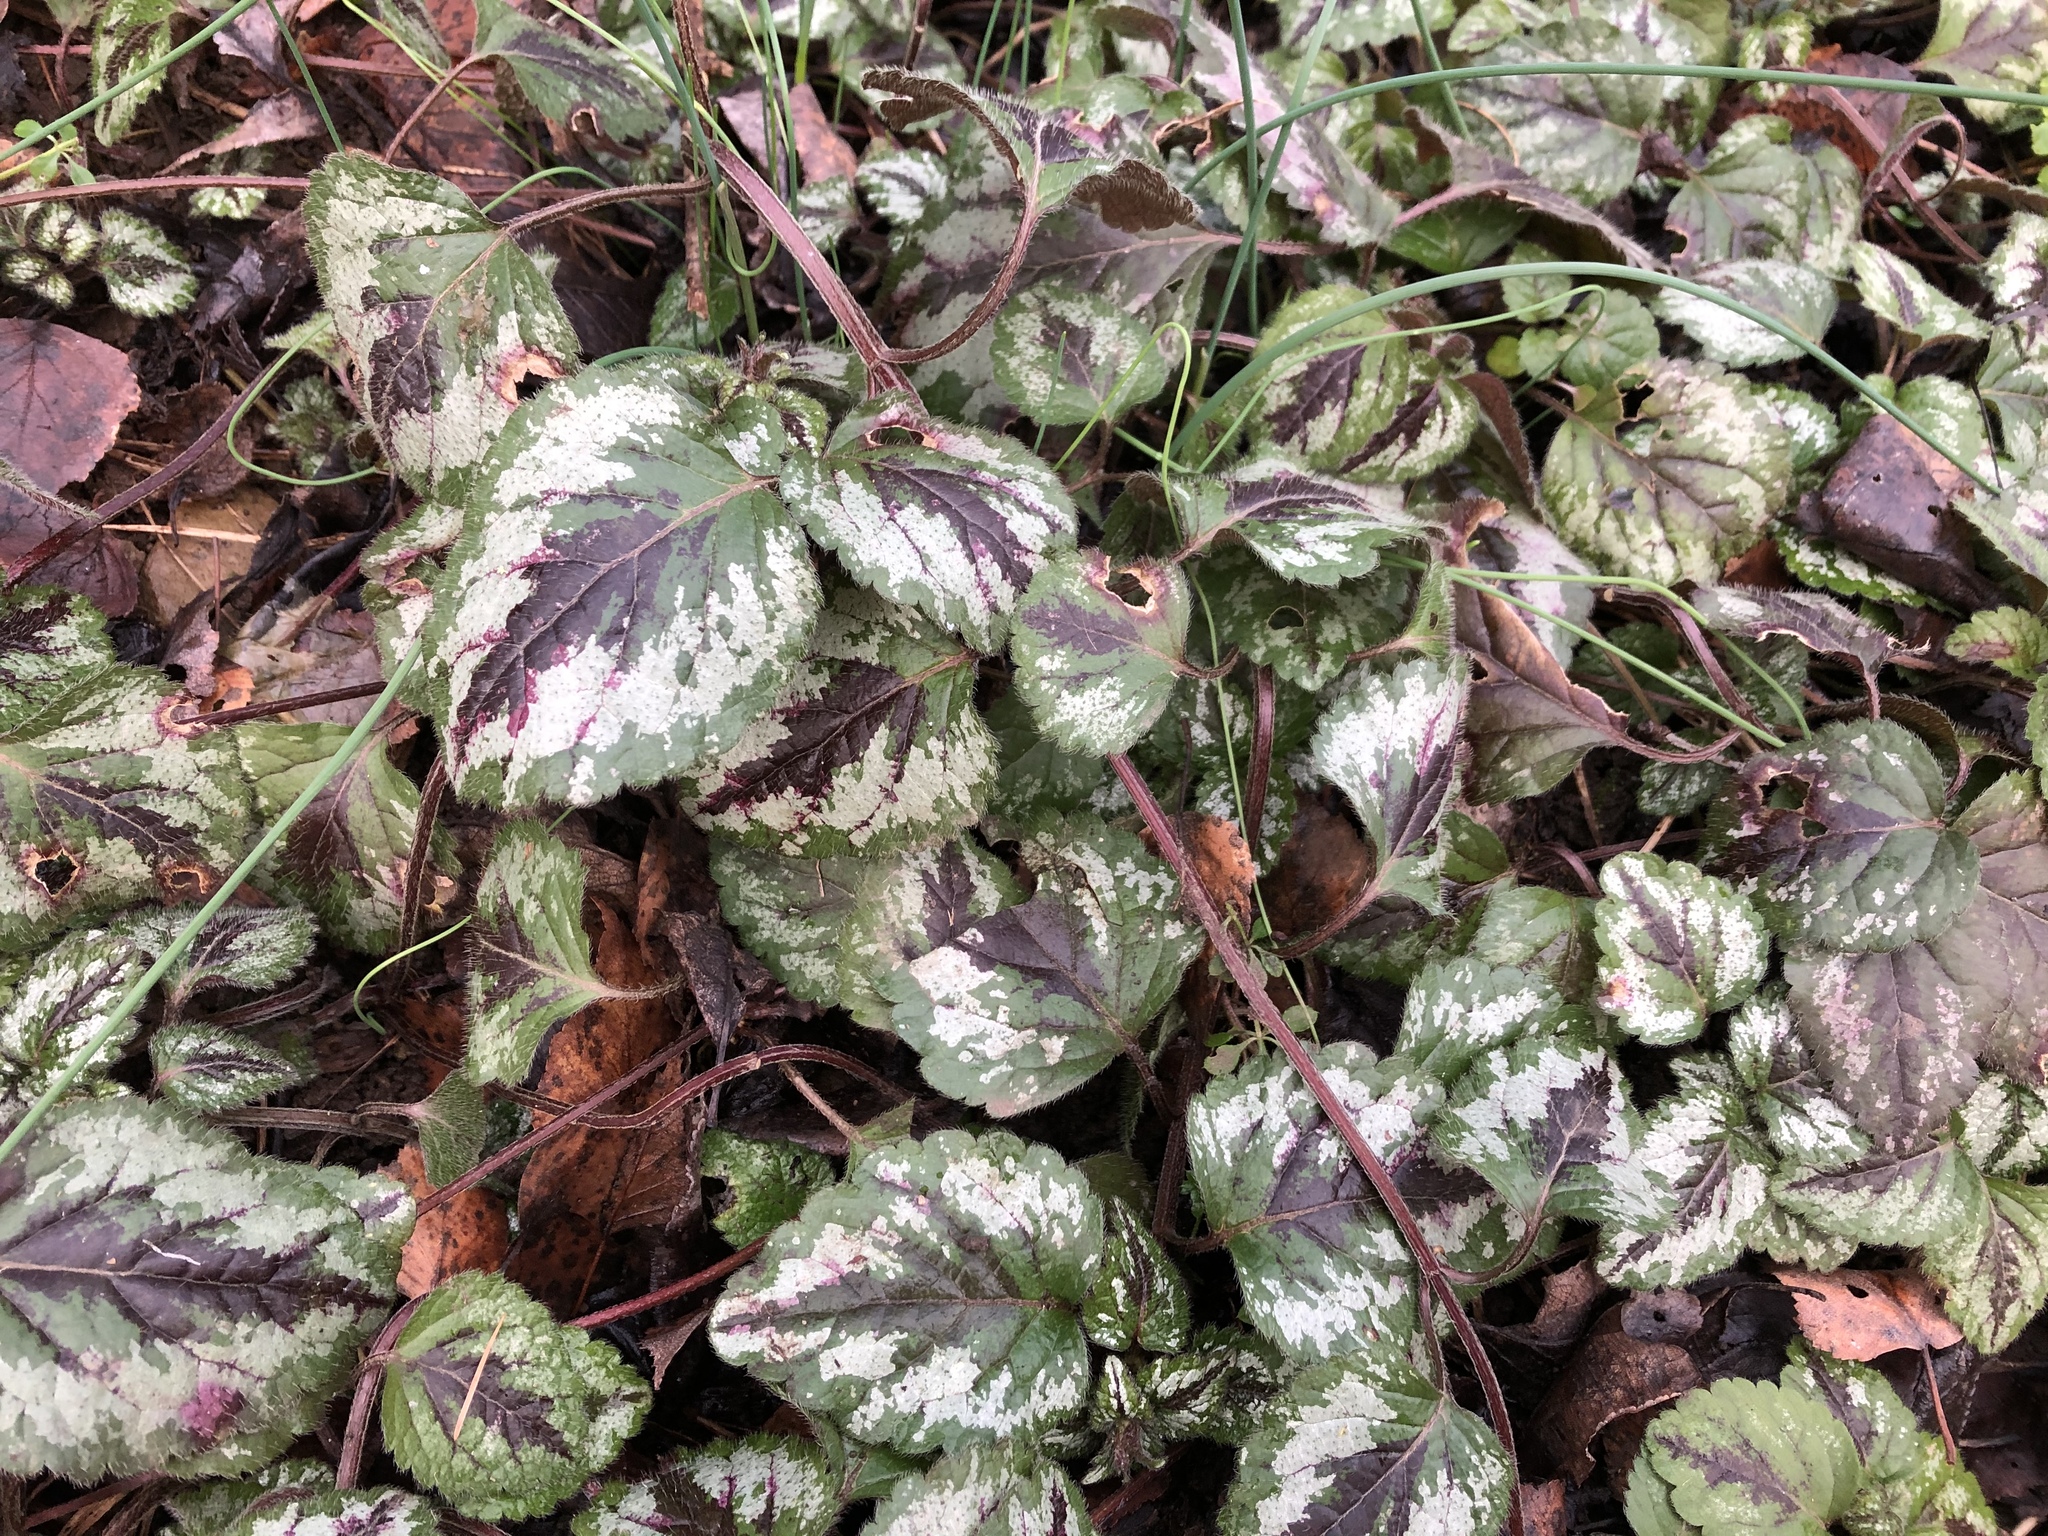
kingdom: Plantae
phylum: Tracheophyta
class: Magnoliopsida
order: Lamiales
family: Lamiaceae
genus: Lamium
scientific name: Lamium galeobdolon
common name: Yellow archangel
